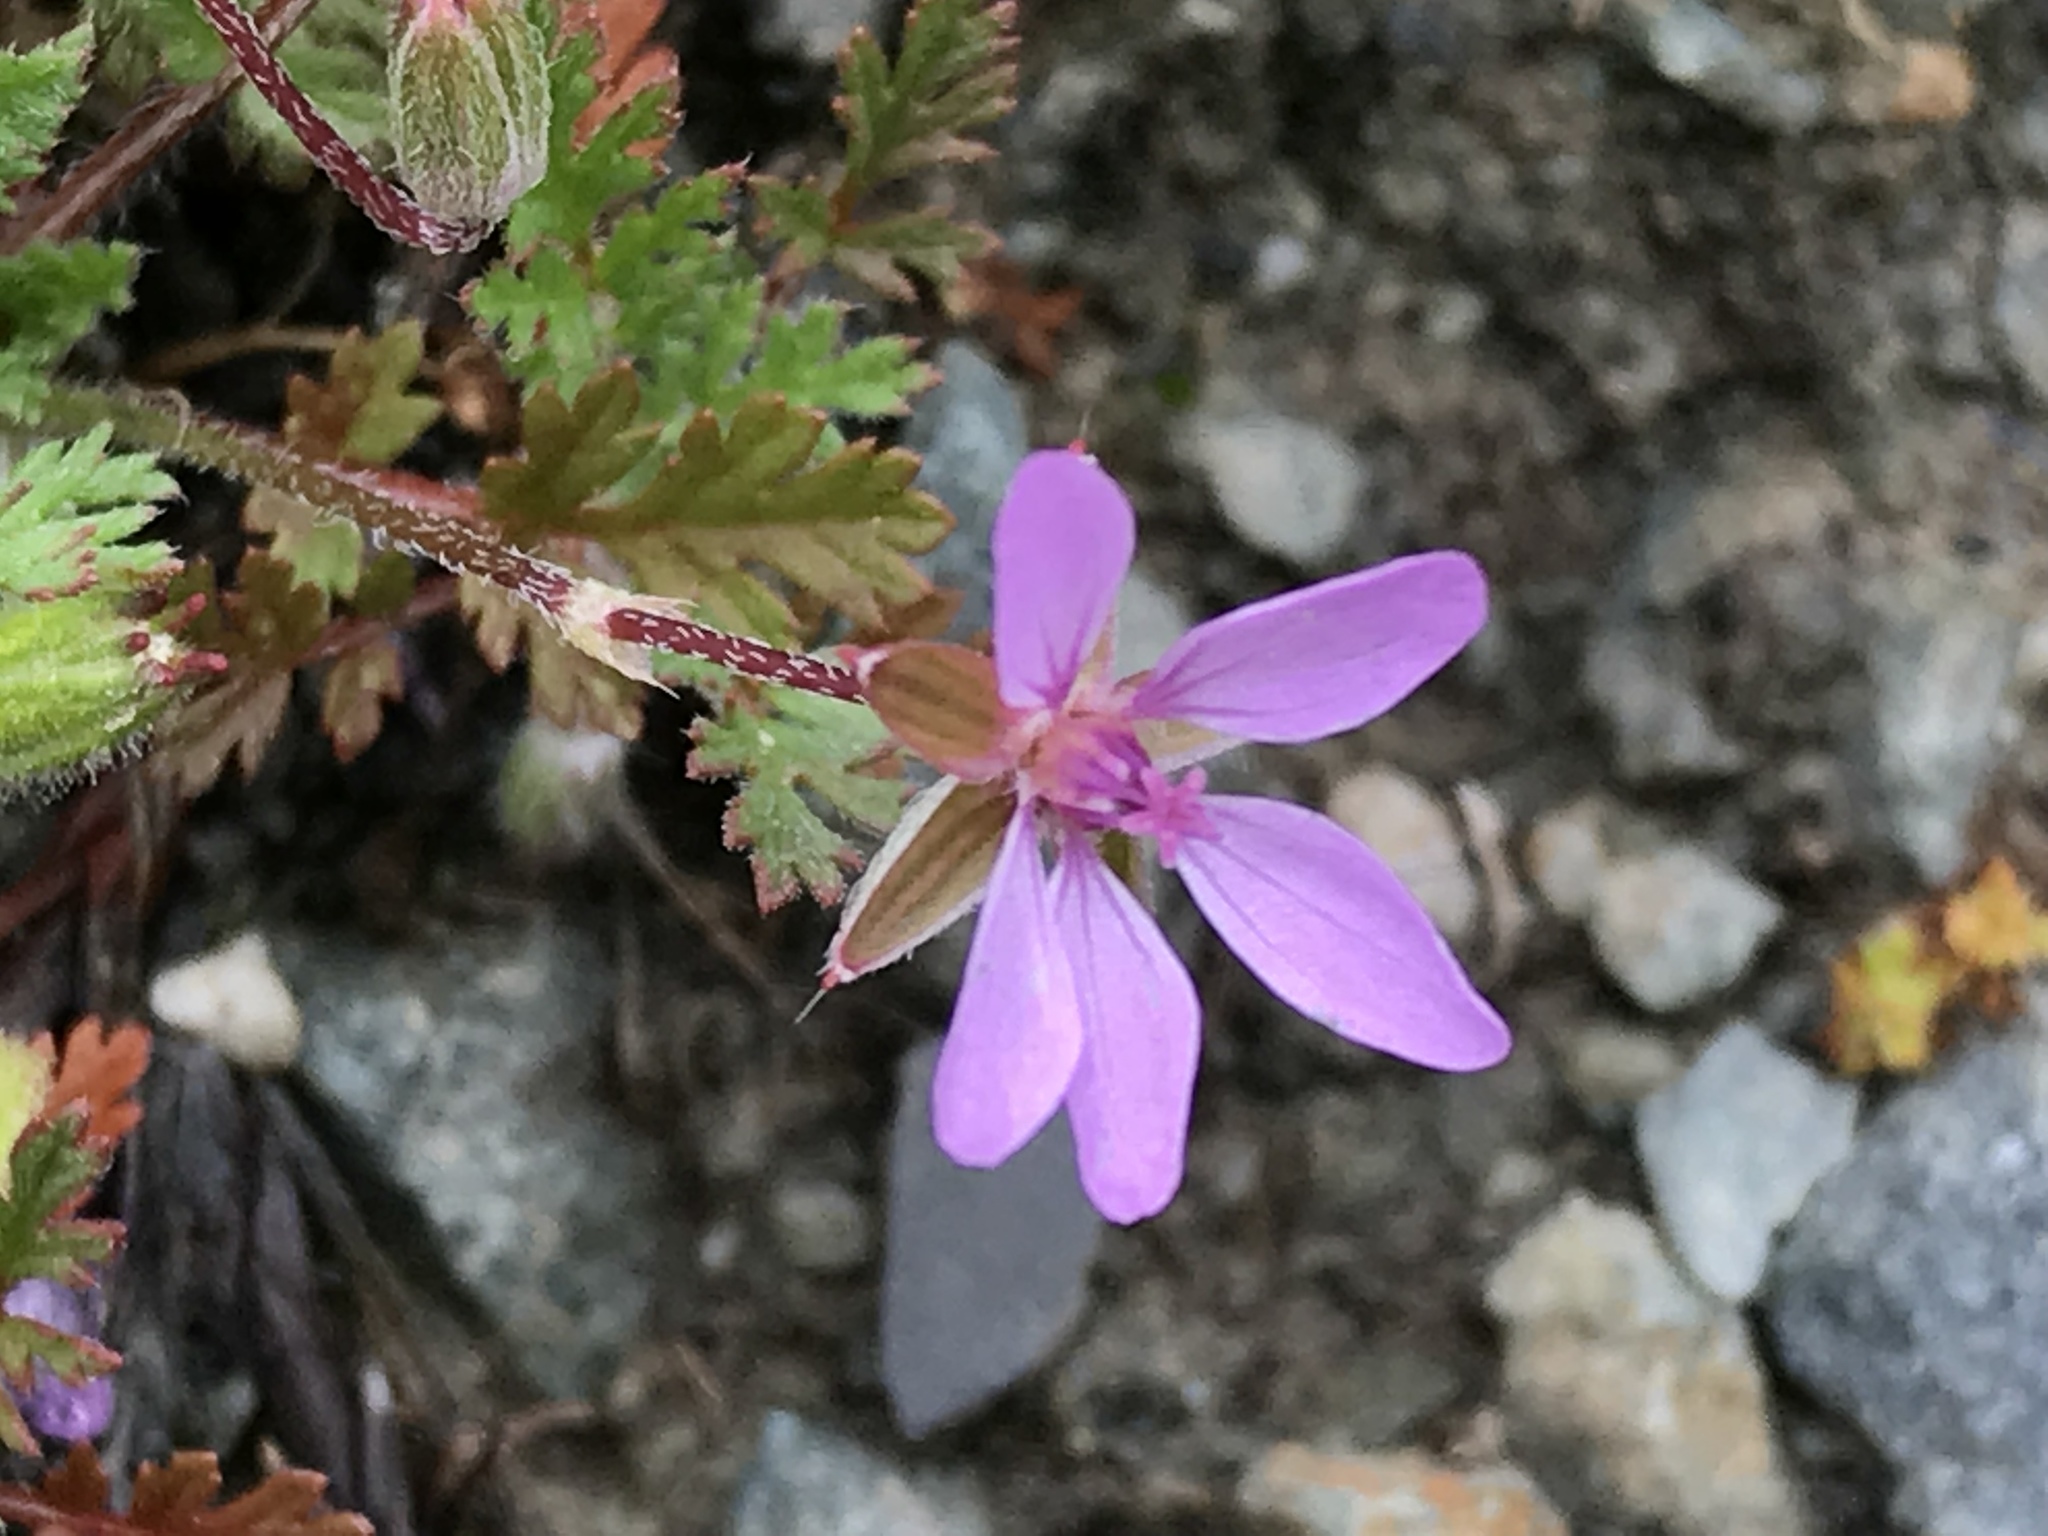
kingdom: Plantae
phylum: Tracheophyta
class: Magnoliopsida
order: Geraniales
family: Geraniaceae
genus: Erodium
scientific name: Erodium cicutarium
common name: Common stork's-bill
